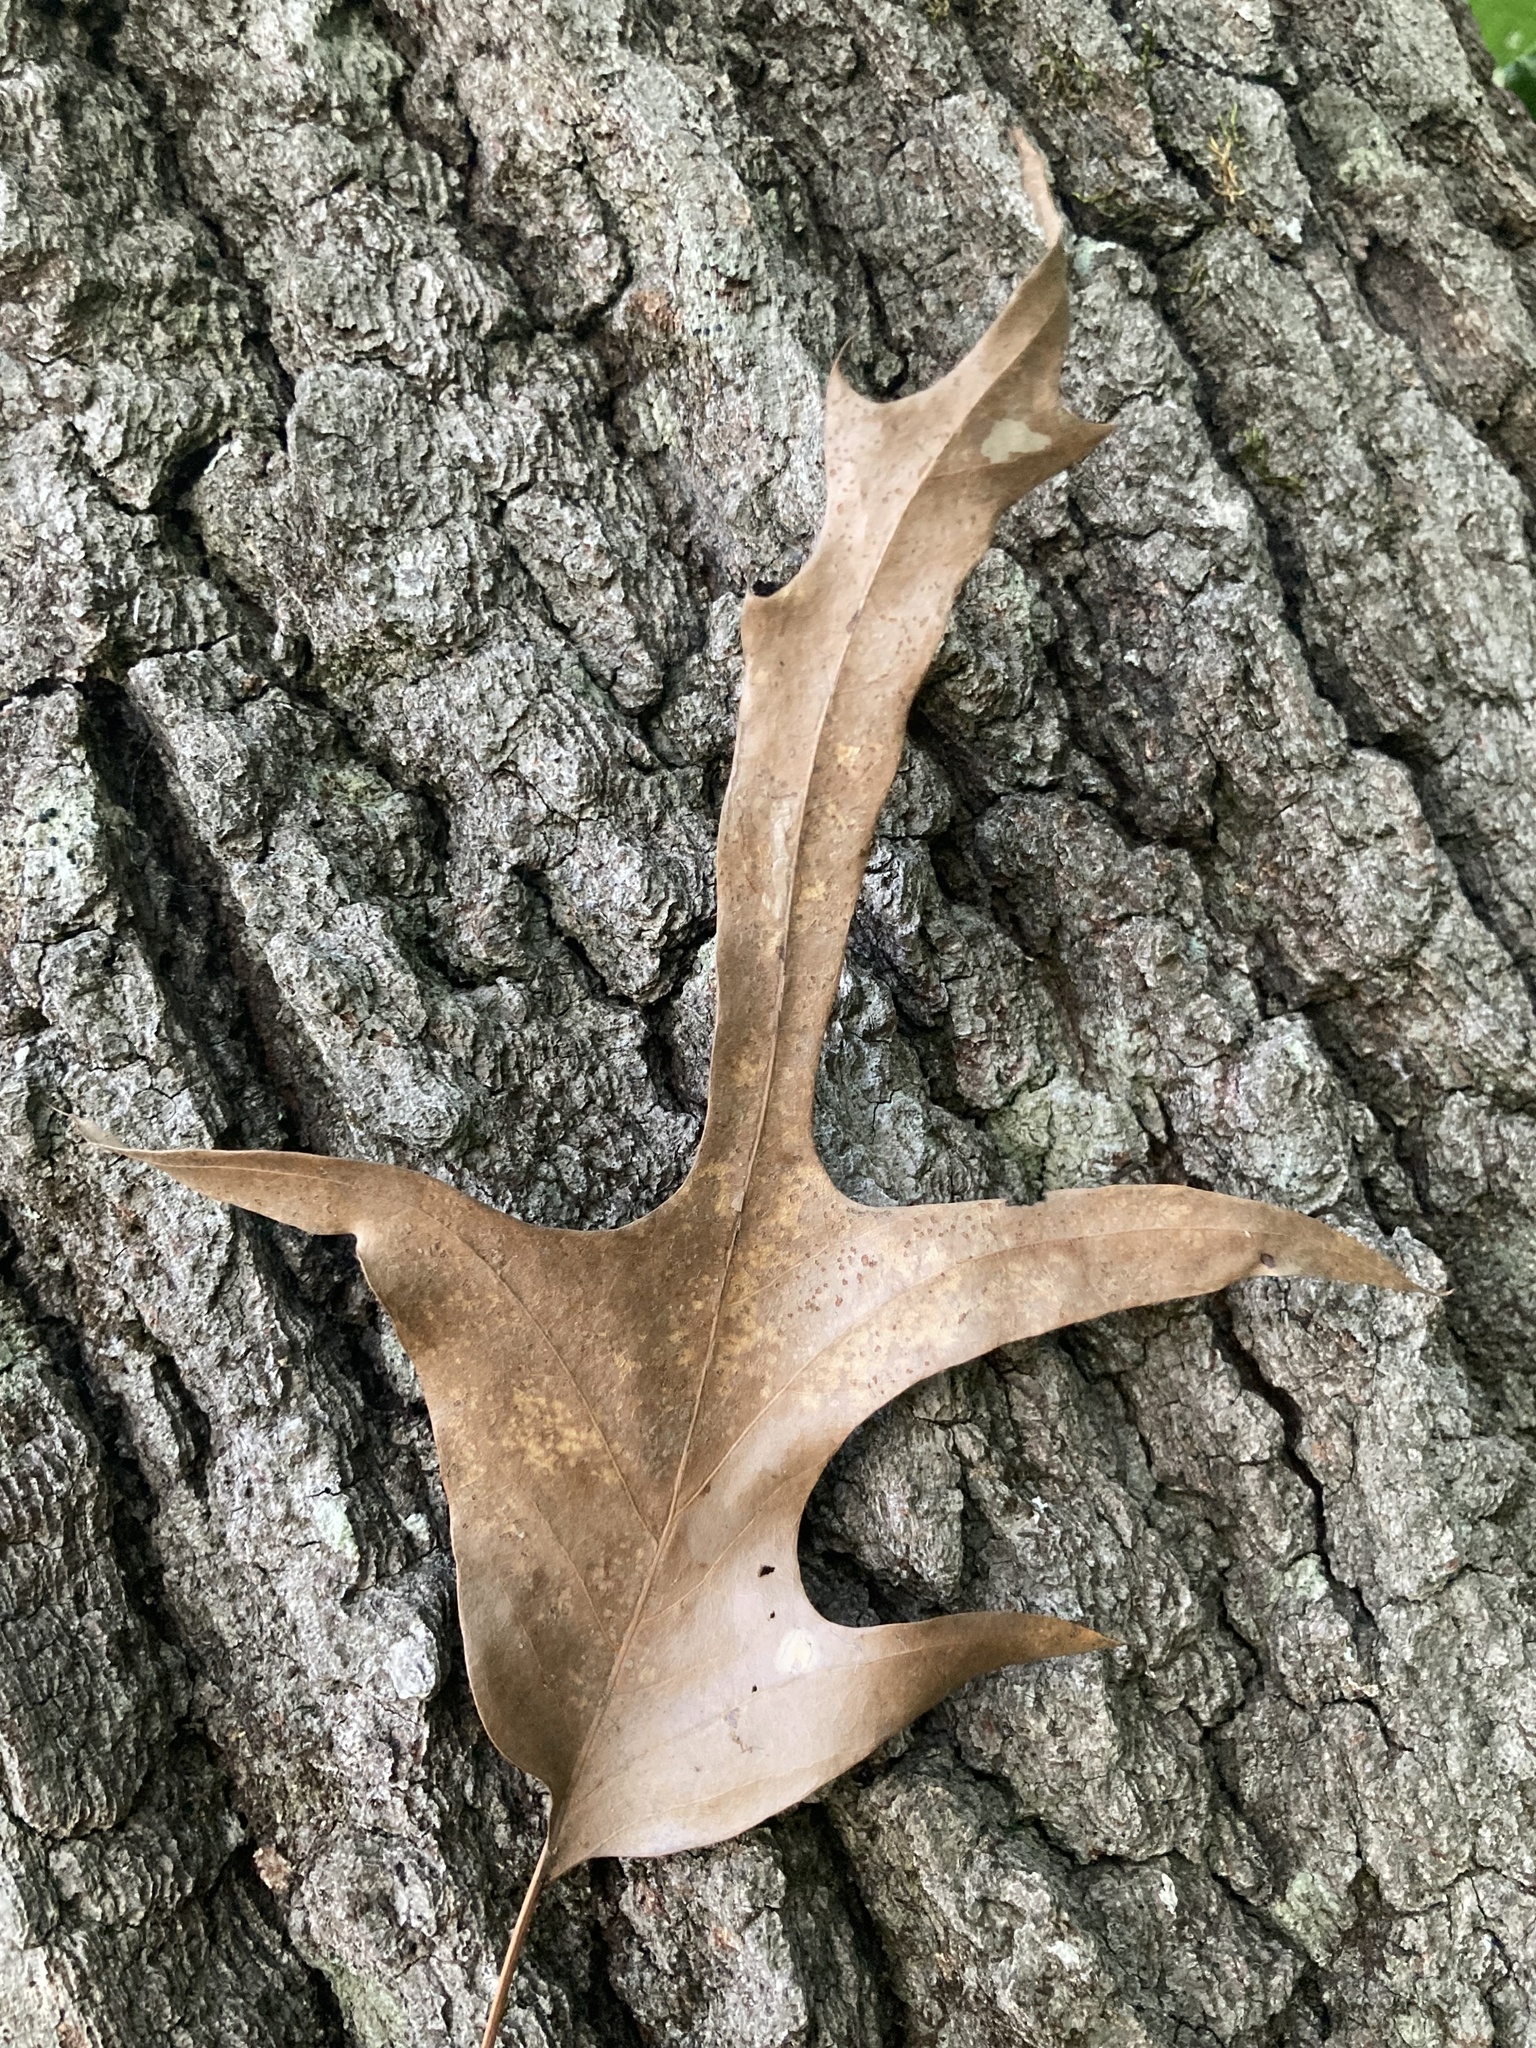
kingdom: Plantae
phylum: Tracheophyta
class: Magnoliopsida
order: Fagales
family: Fagaceae
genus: Quercus
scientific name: Quercus falcata
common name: Southern red oak
